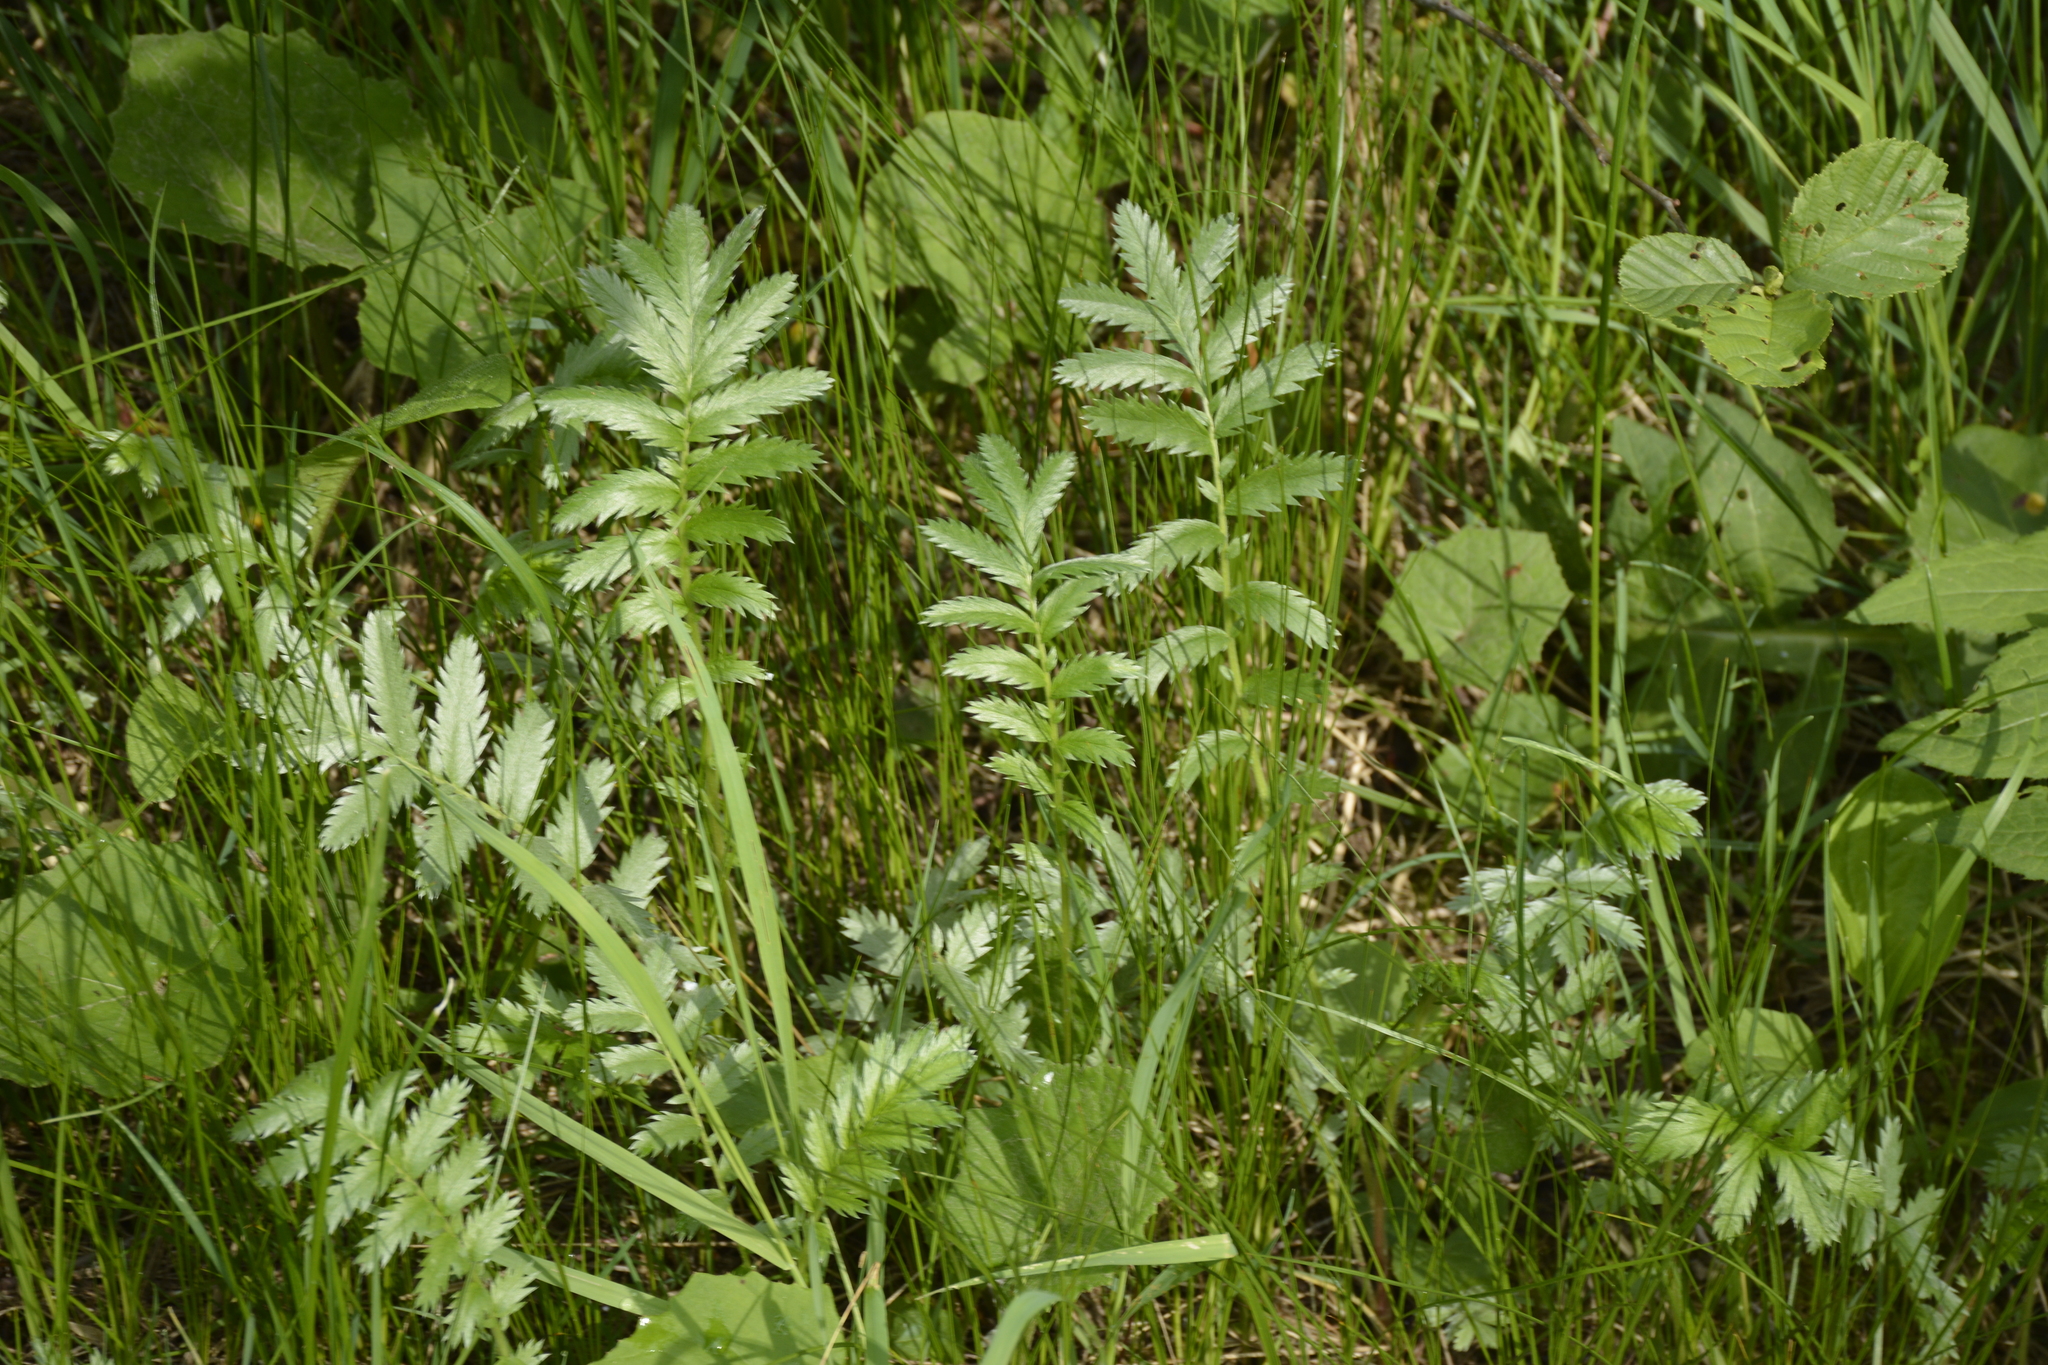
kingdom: Plantae
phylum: Tracheophyta
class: Magnoliopsida
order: Rosales
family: Rosaceae
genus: Argentina
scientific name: Argentina anserina
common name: Common silverweed
